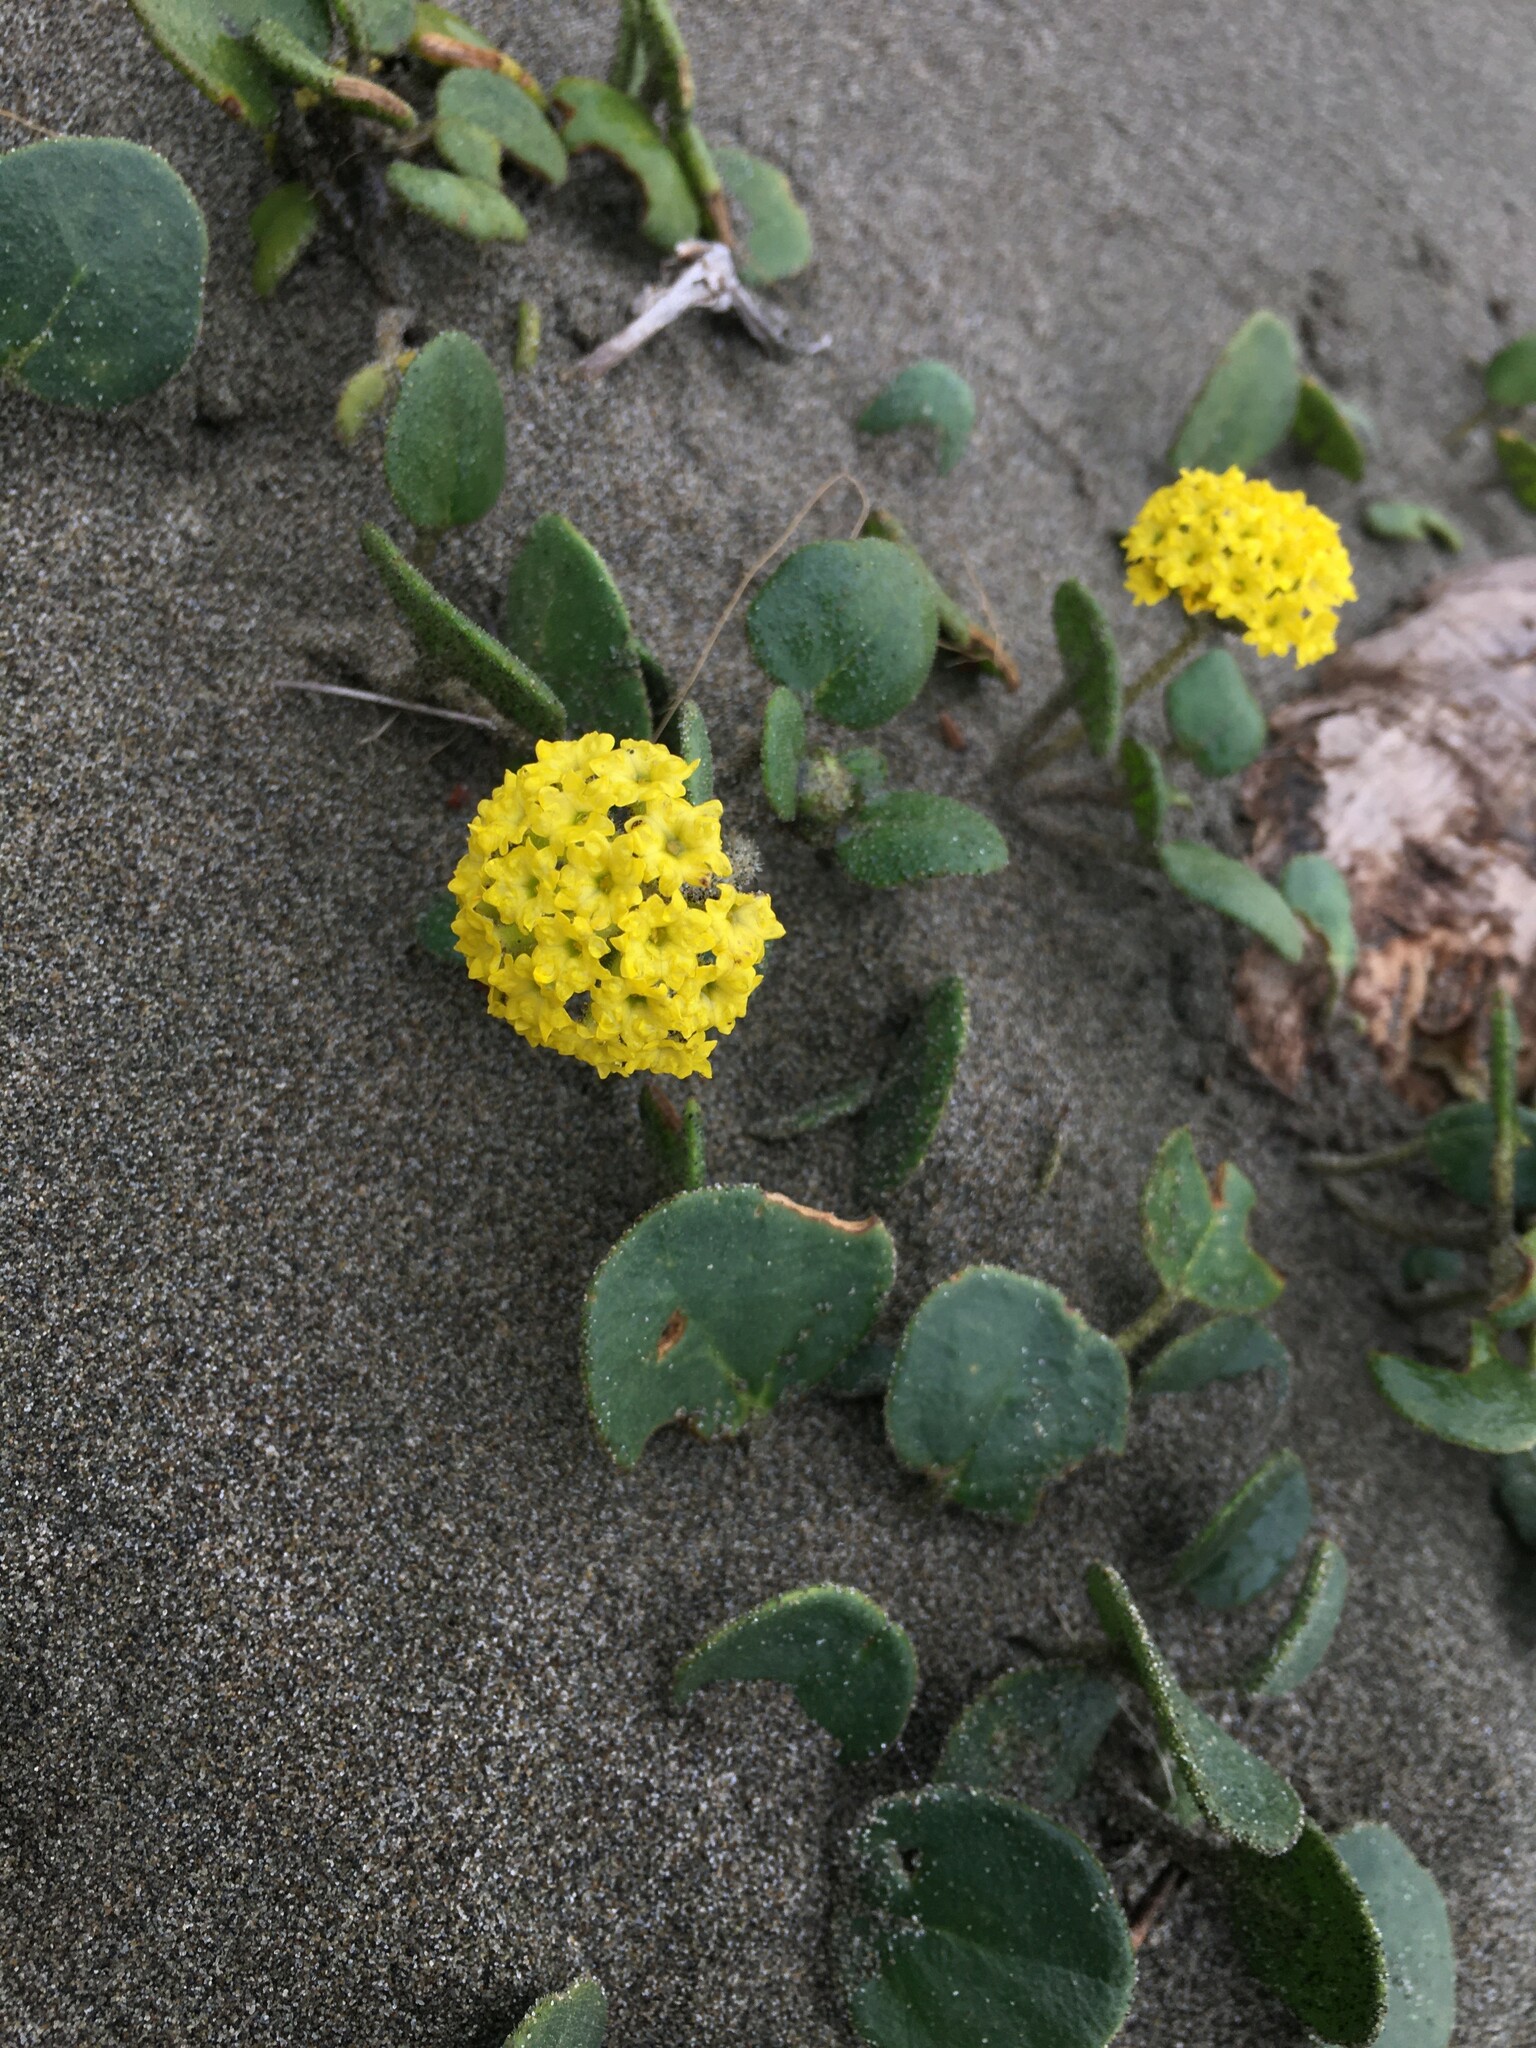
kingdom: Plantae
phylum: Tracheophyta
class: Magnoliopsida
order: Caryophyllales
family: Nyctaginaceae
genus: Abronia
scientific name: Abronia latifolia
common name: Yellow sand-verbena
